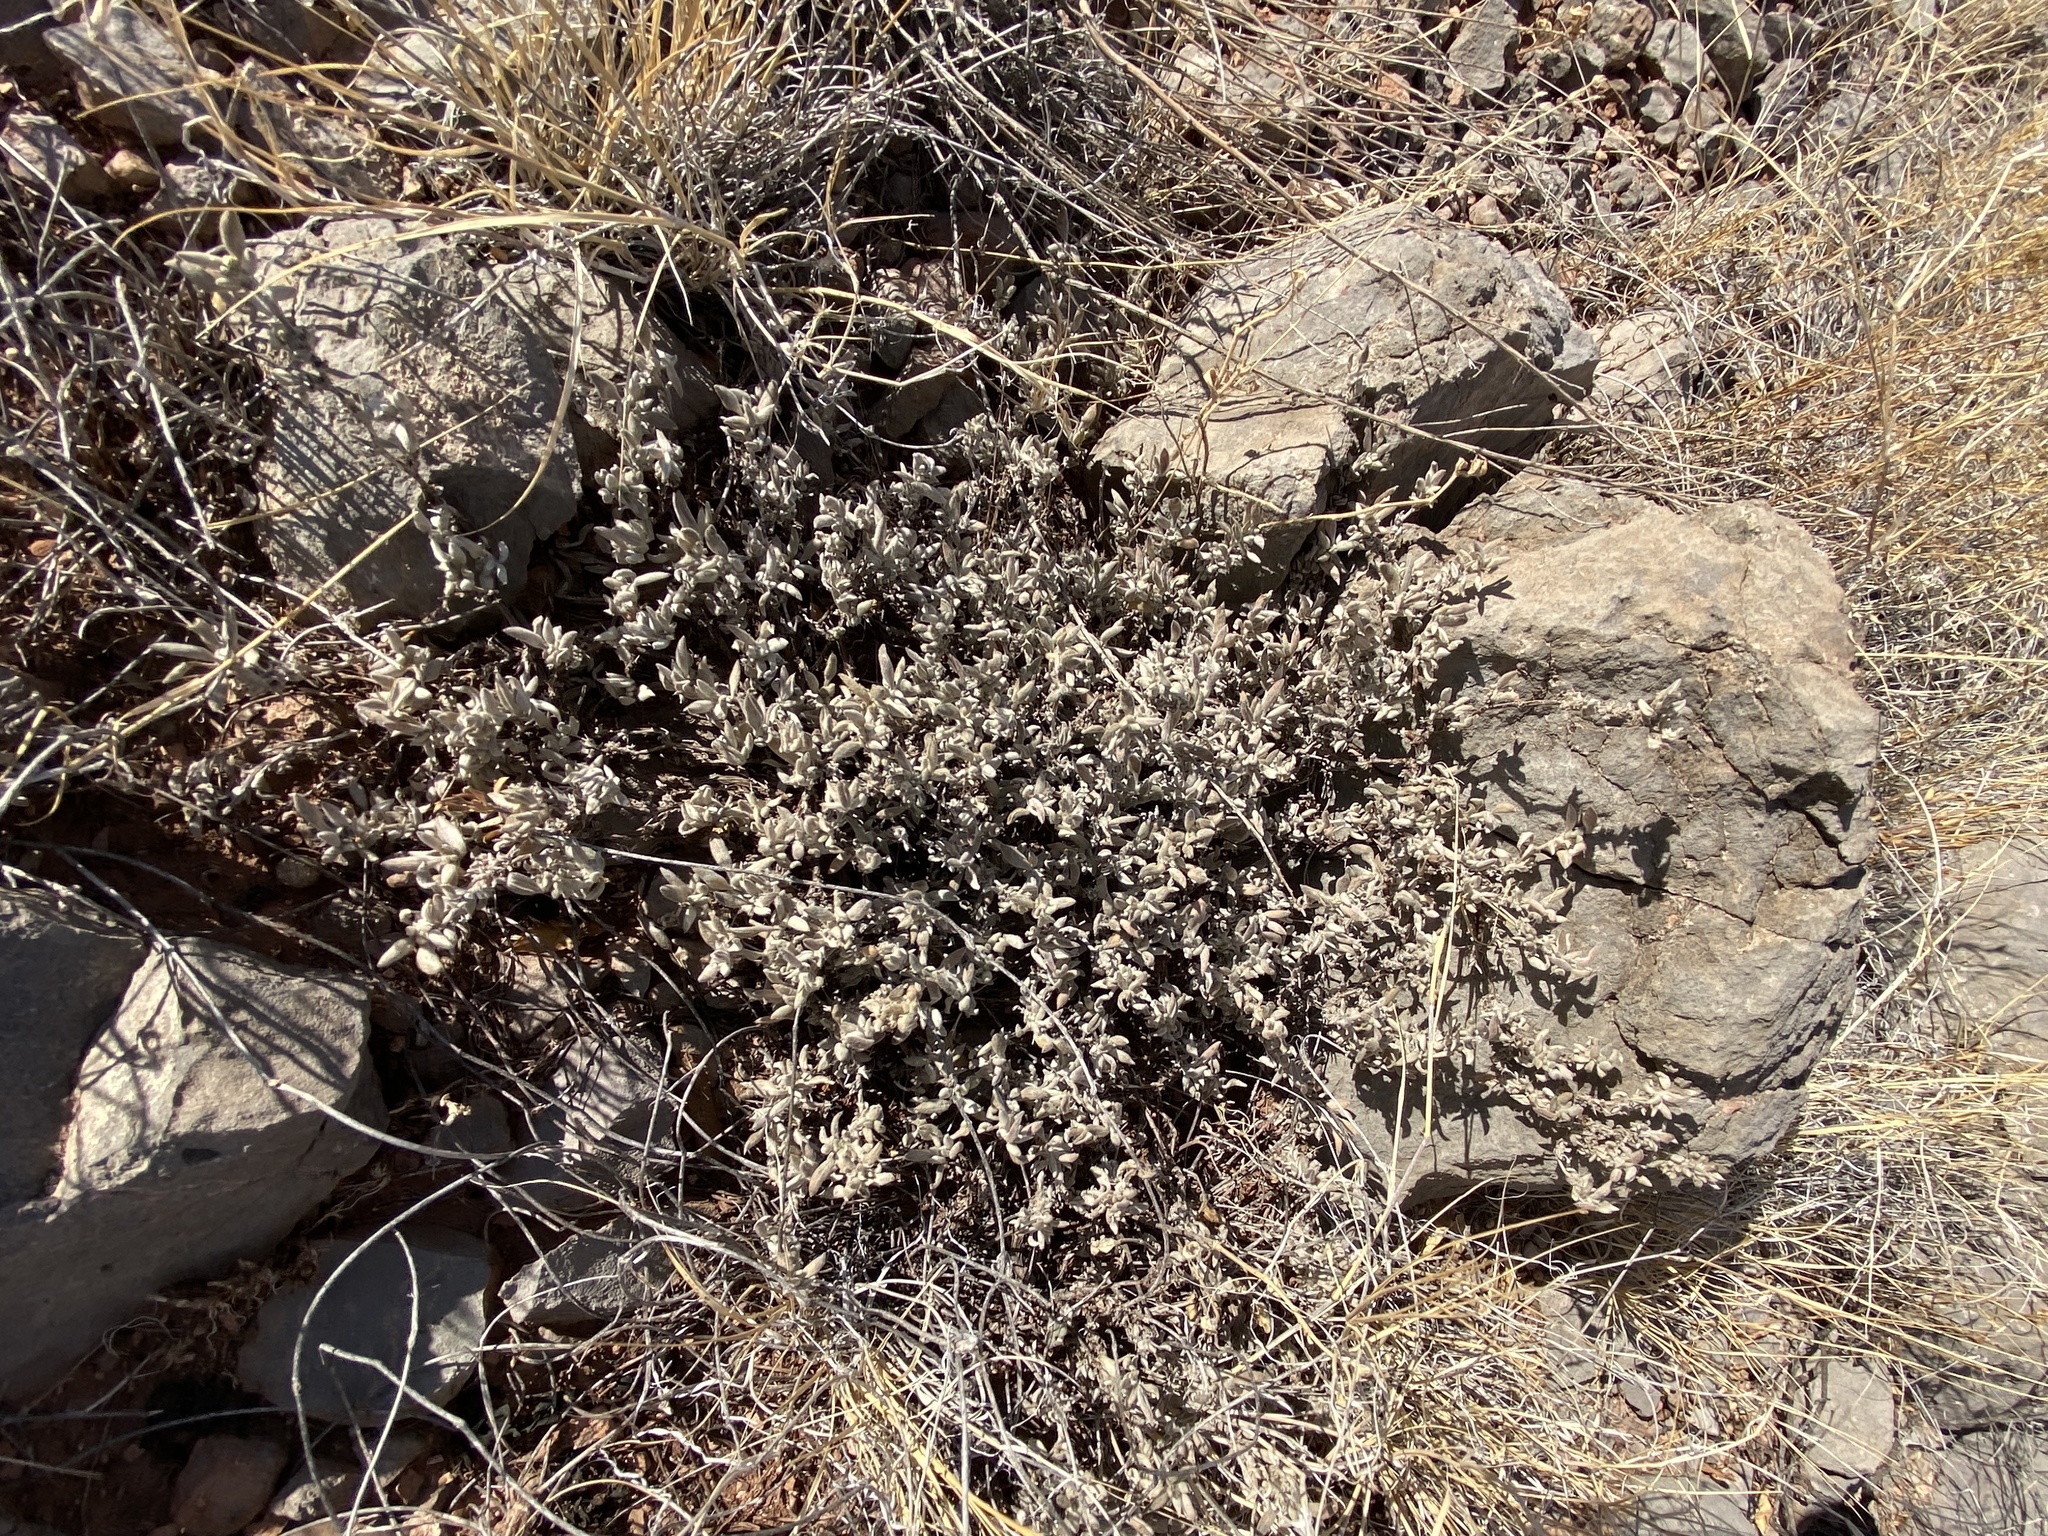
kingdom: Plantae
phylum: Tracheophyta
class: Magnoliopsida
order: Boraginales
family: Ehretiaceae
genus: Tiquilia
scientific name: Tiquilia canescens
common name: Hairy tiquilia
